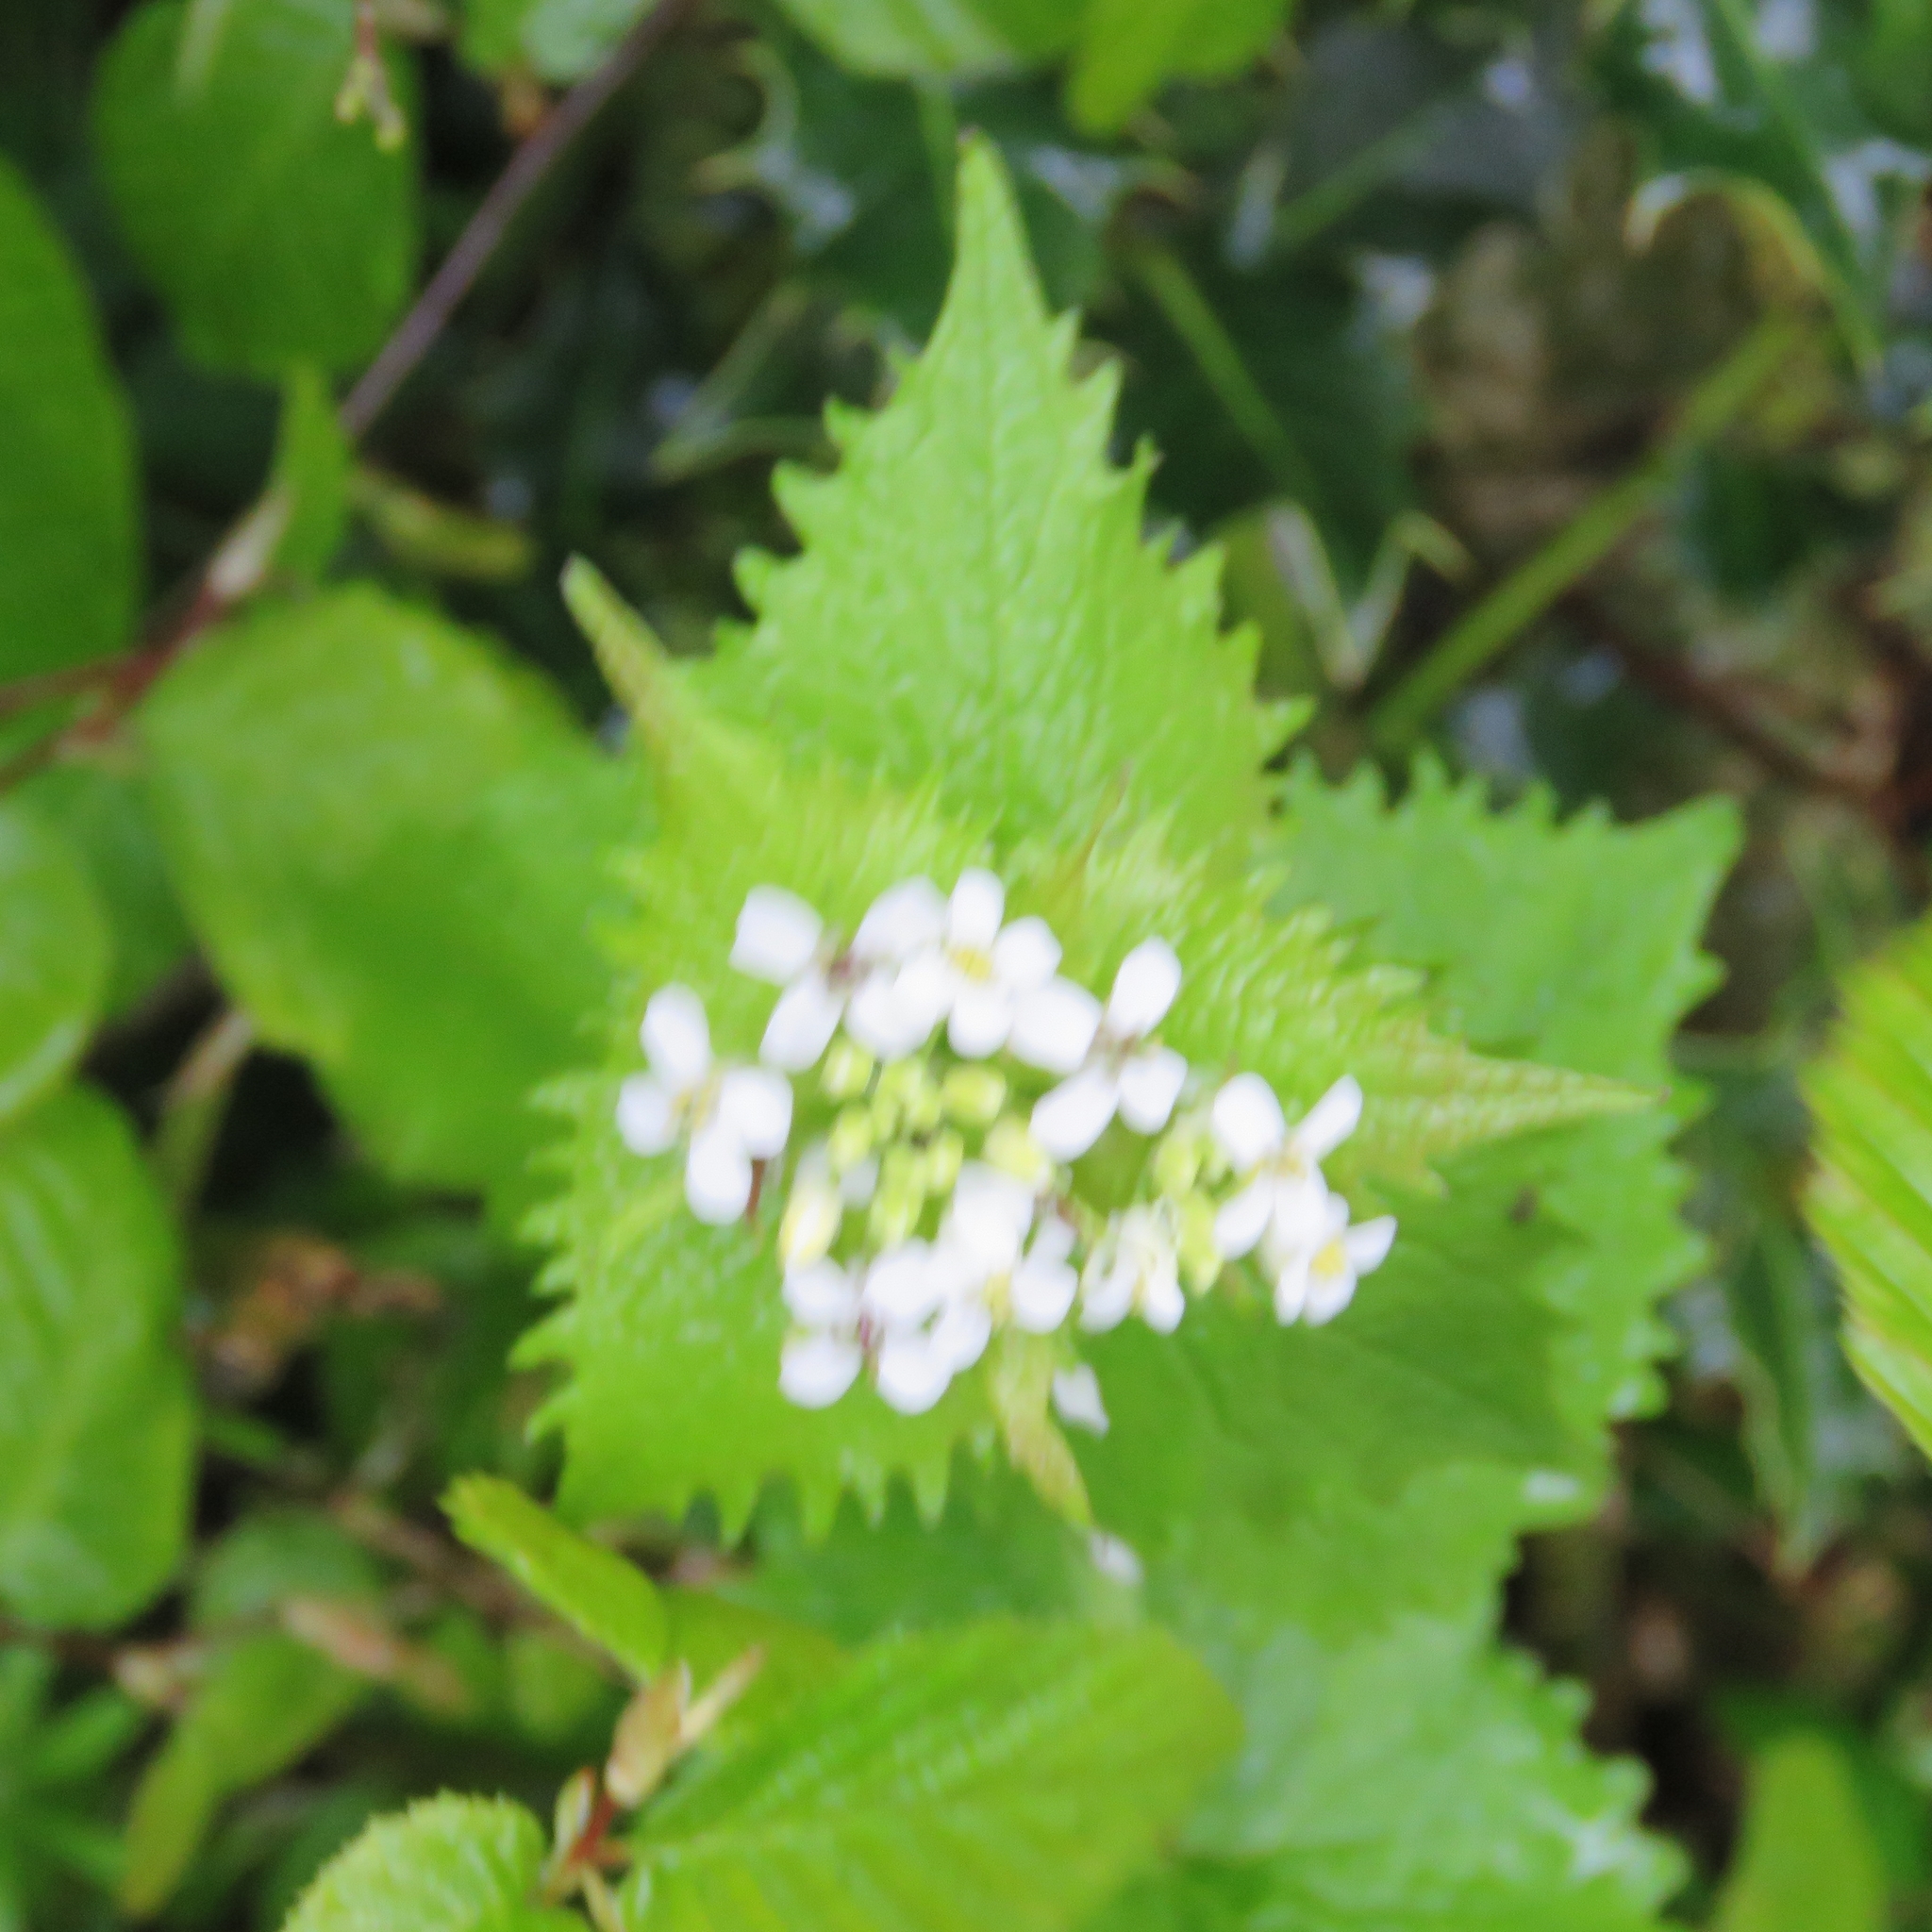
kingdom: Plantae
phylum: Tracheophyta
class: Magnoliopsida
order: Brassicales
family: Brassicaceae
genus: Alliaria
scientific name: Alliaria petiolata
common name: Garlic mustard
